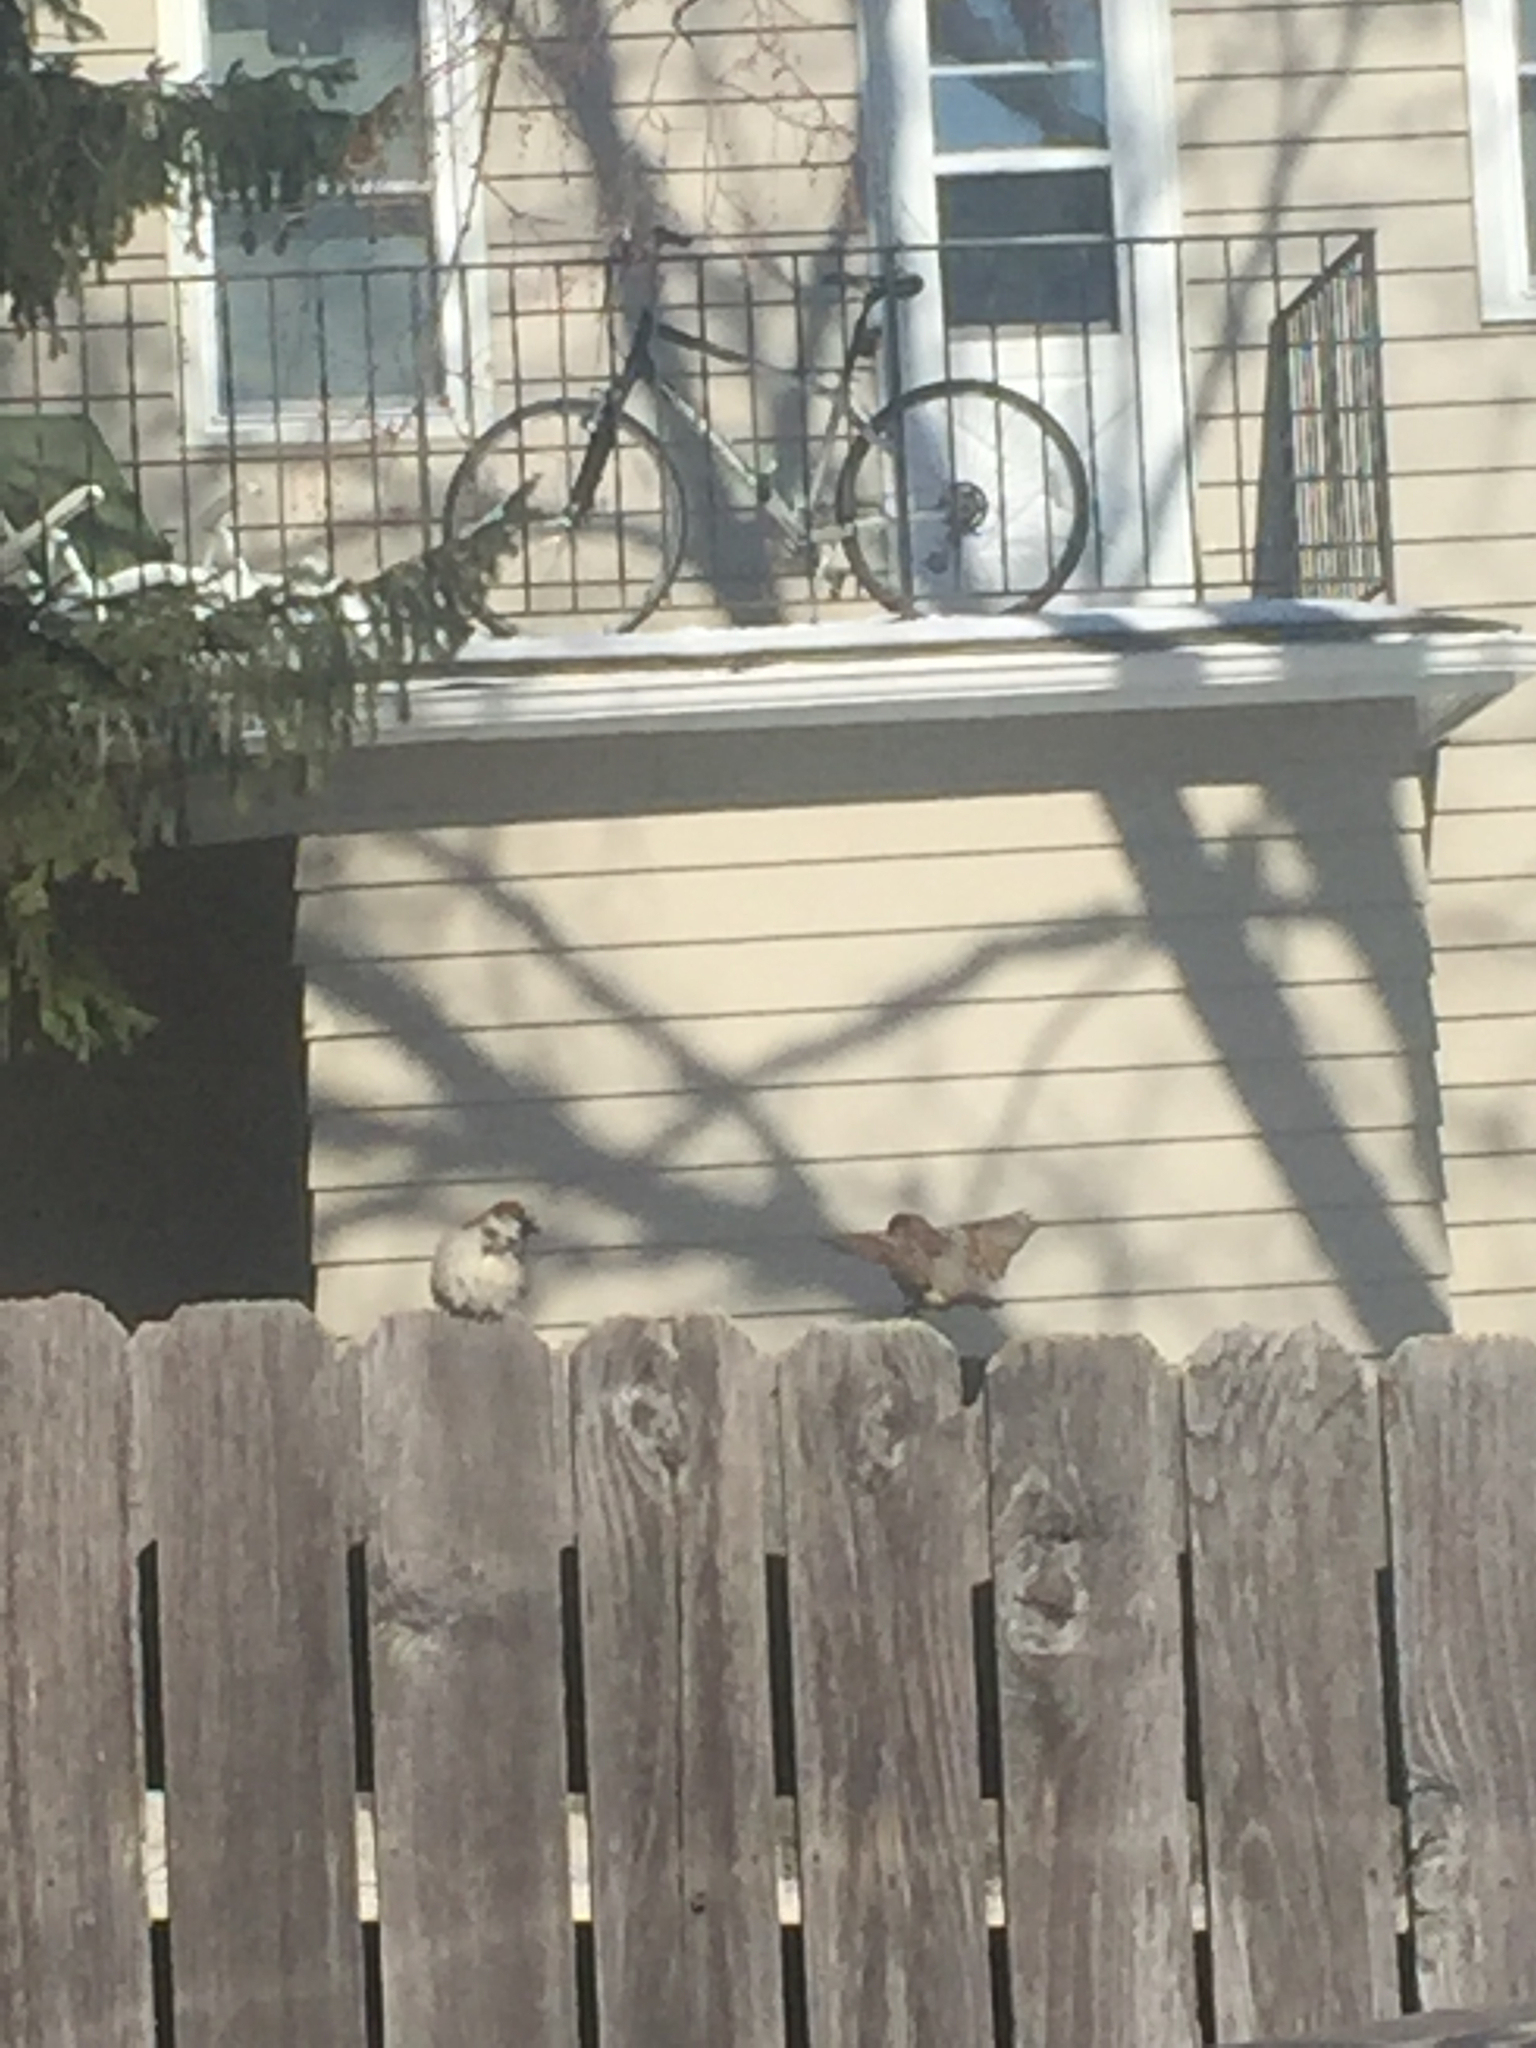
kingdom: Animalia
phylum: Chordata
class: Aves
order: Passeriformes
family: Passeridae
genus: Passer
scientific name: Passer domesticus
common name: House sparrow
